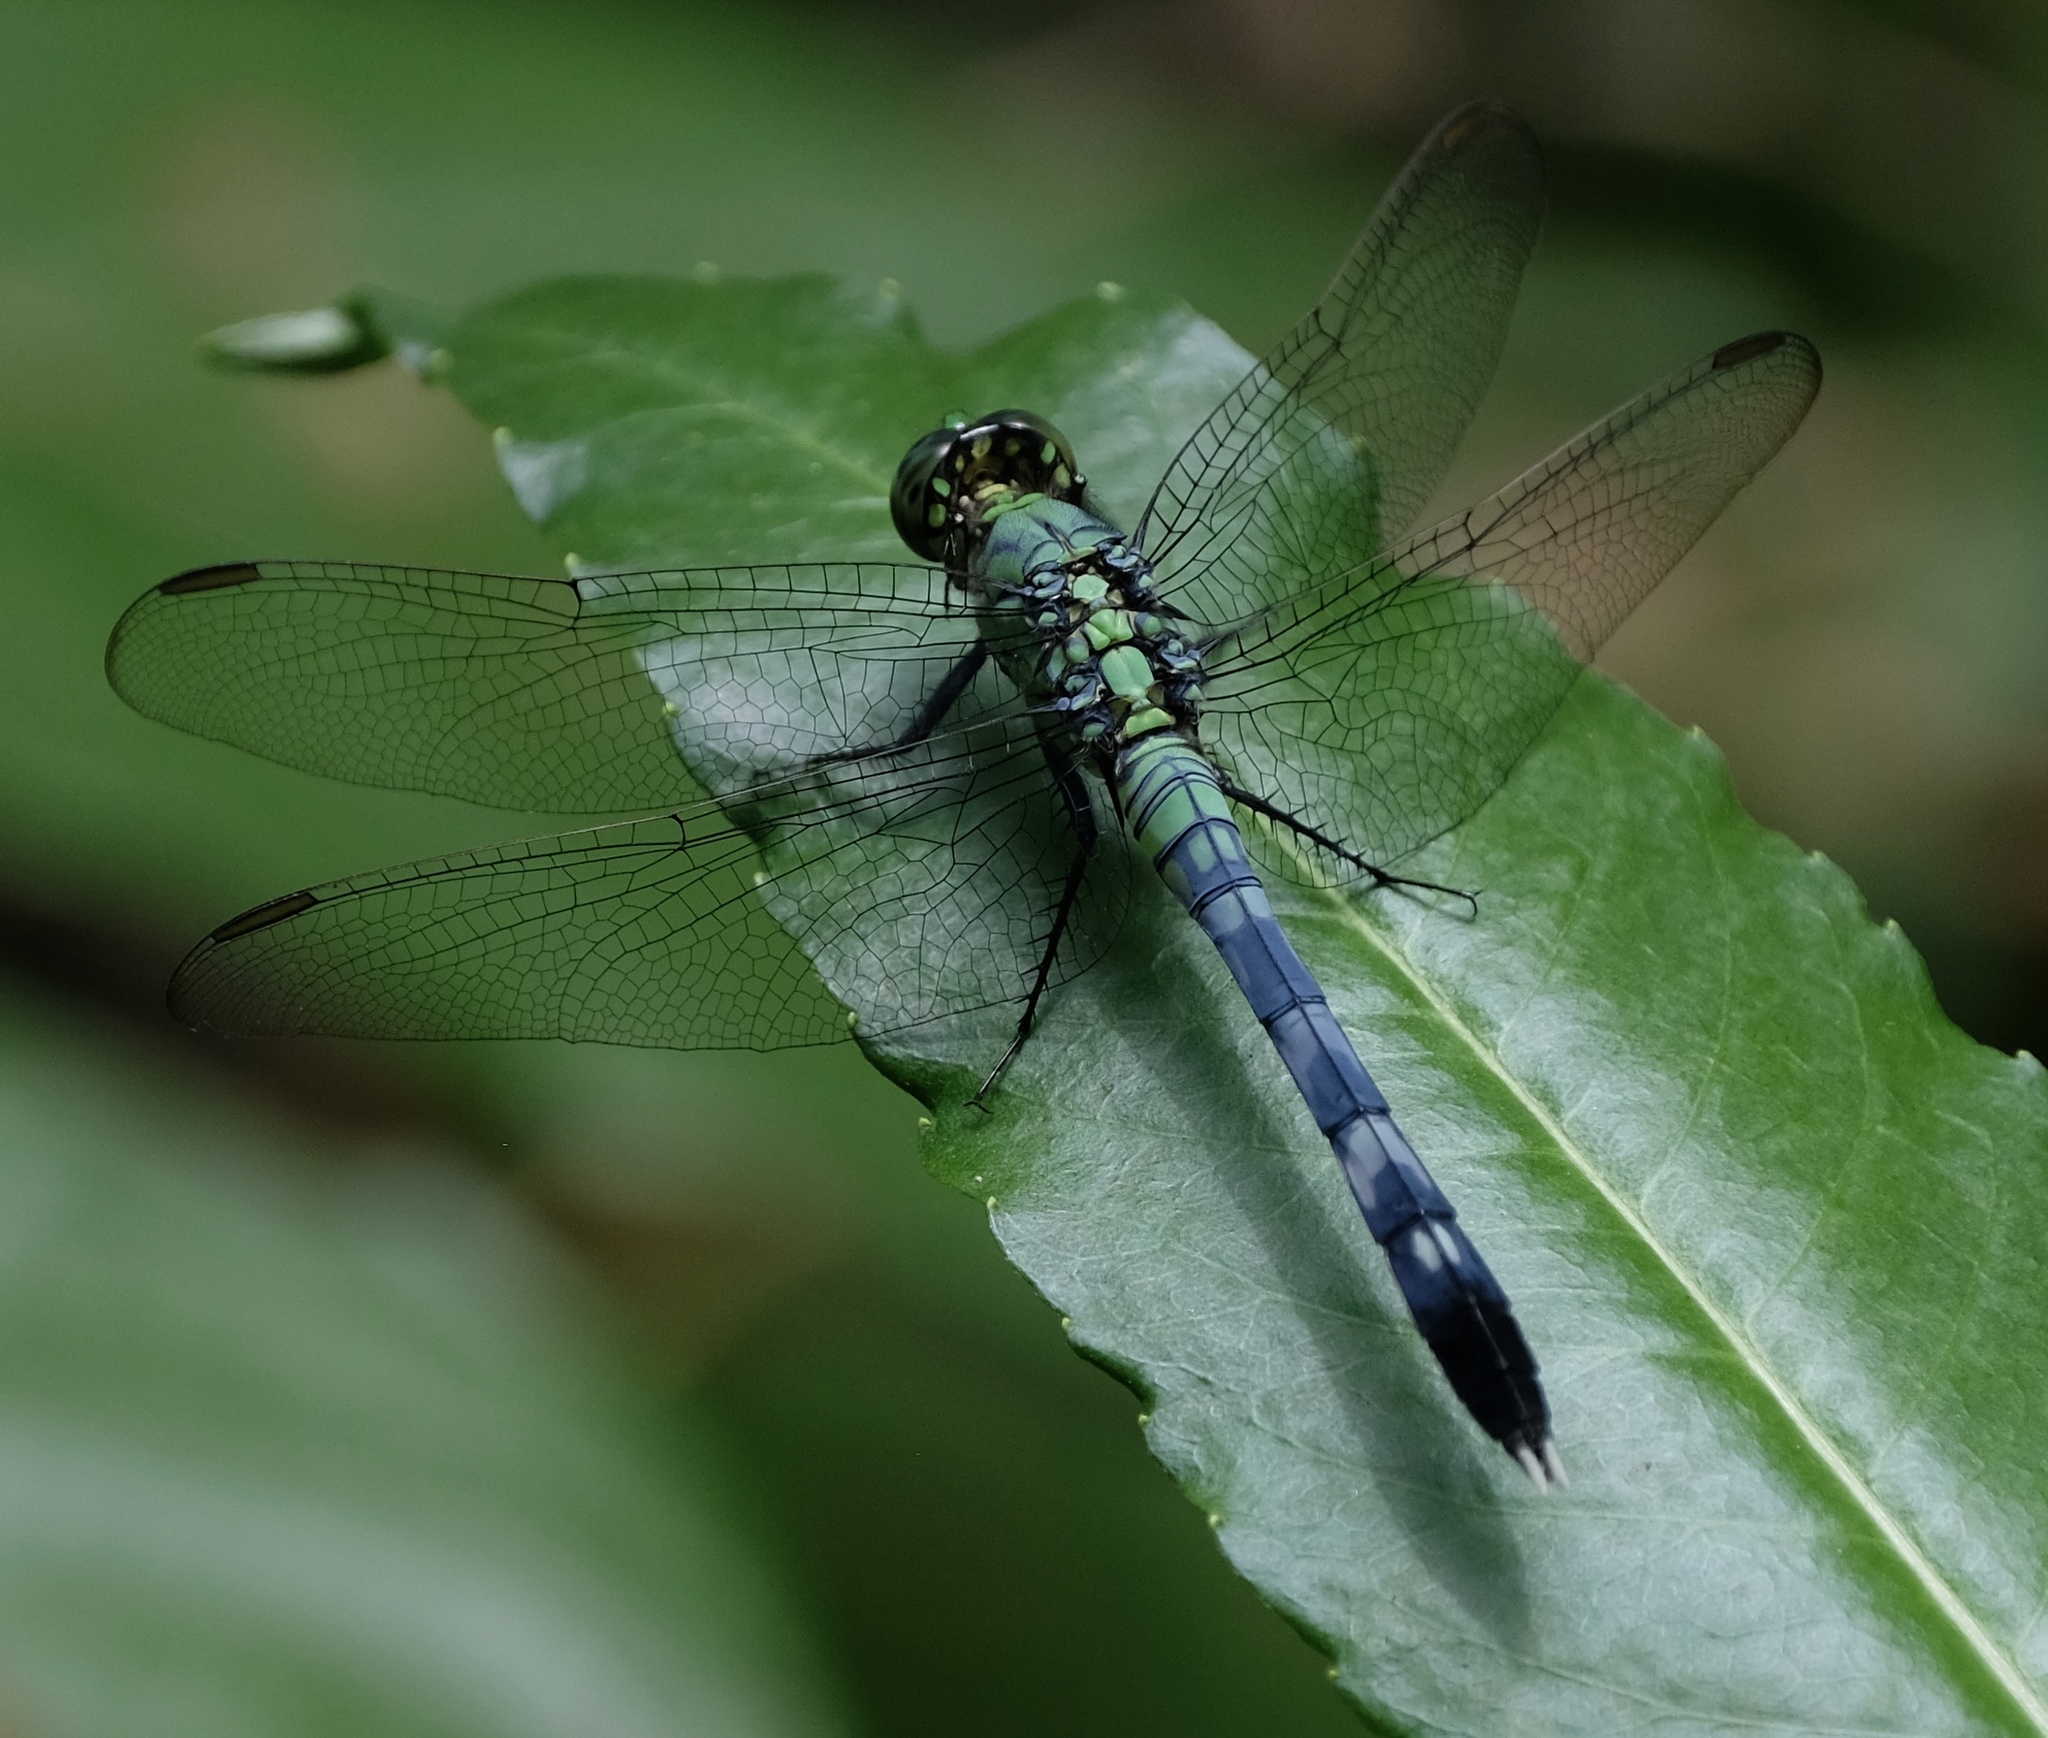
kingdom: Animalia
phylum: Arthropoda
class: Insecta
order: Odonata
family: Libellulidae
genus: Erythemis
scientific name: Erythemis simplicicollis
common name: Eastern pondhawk
